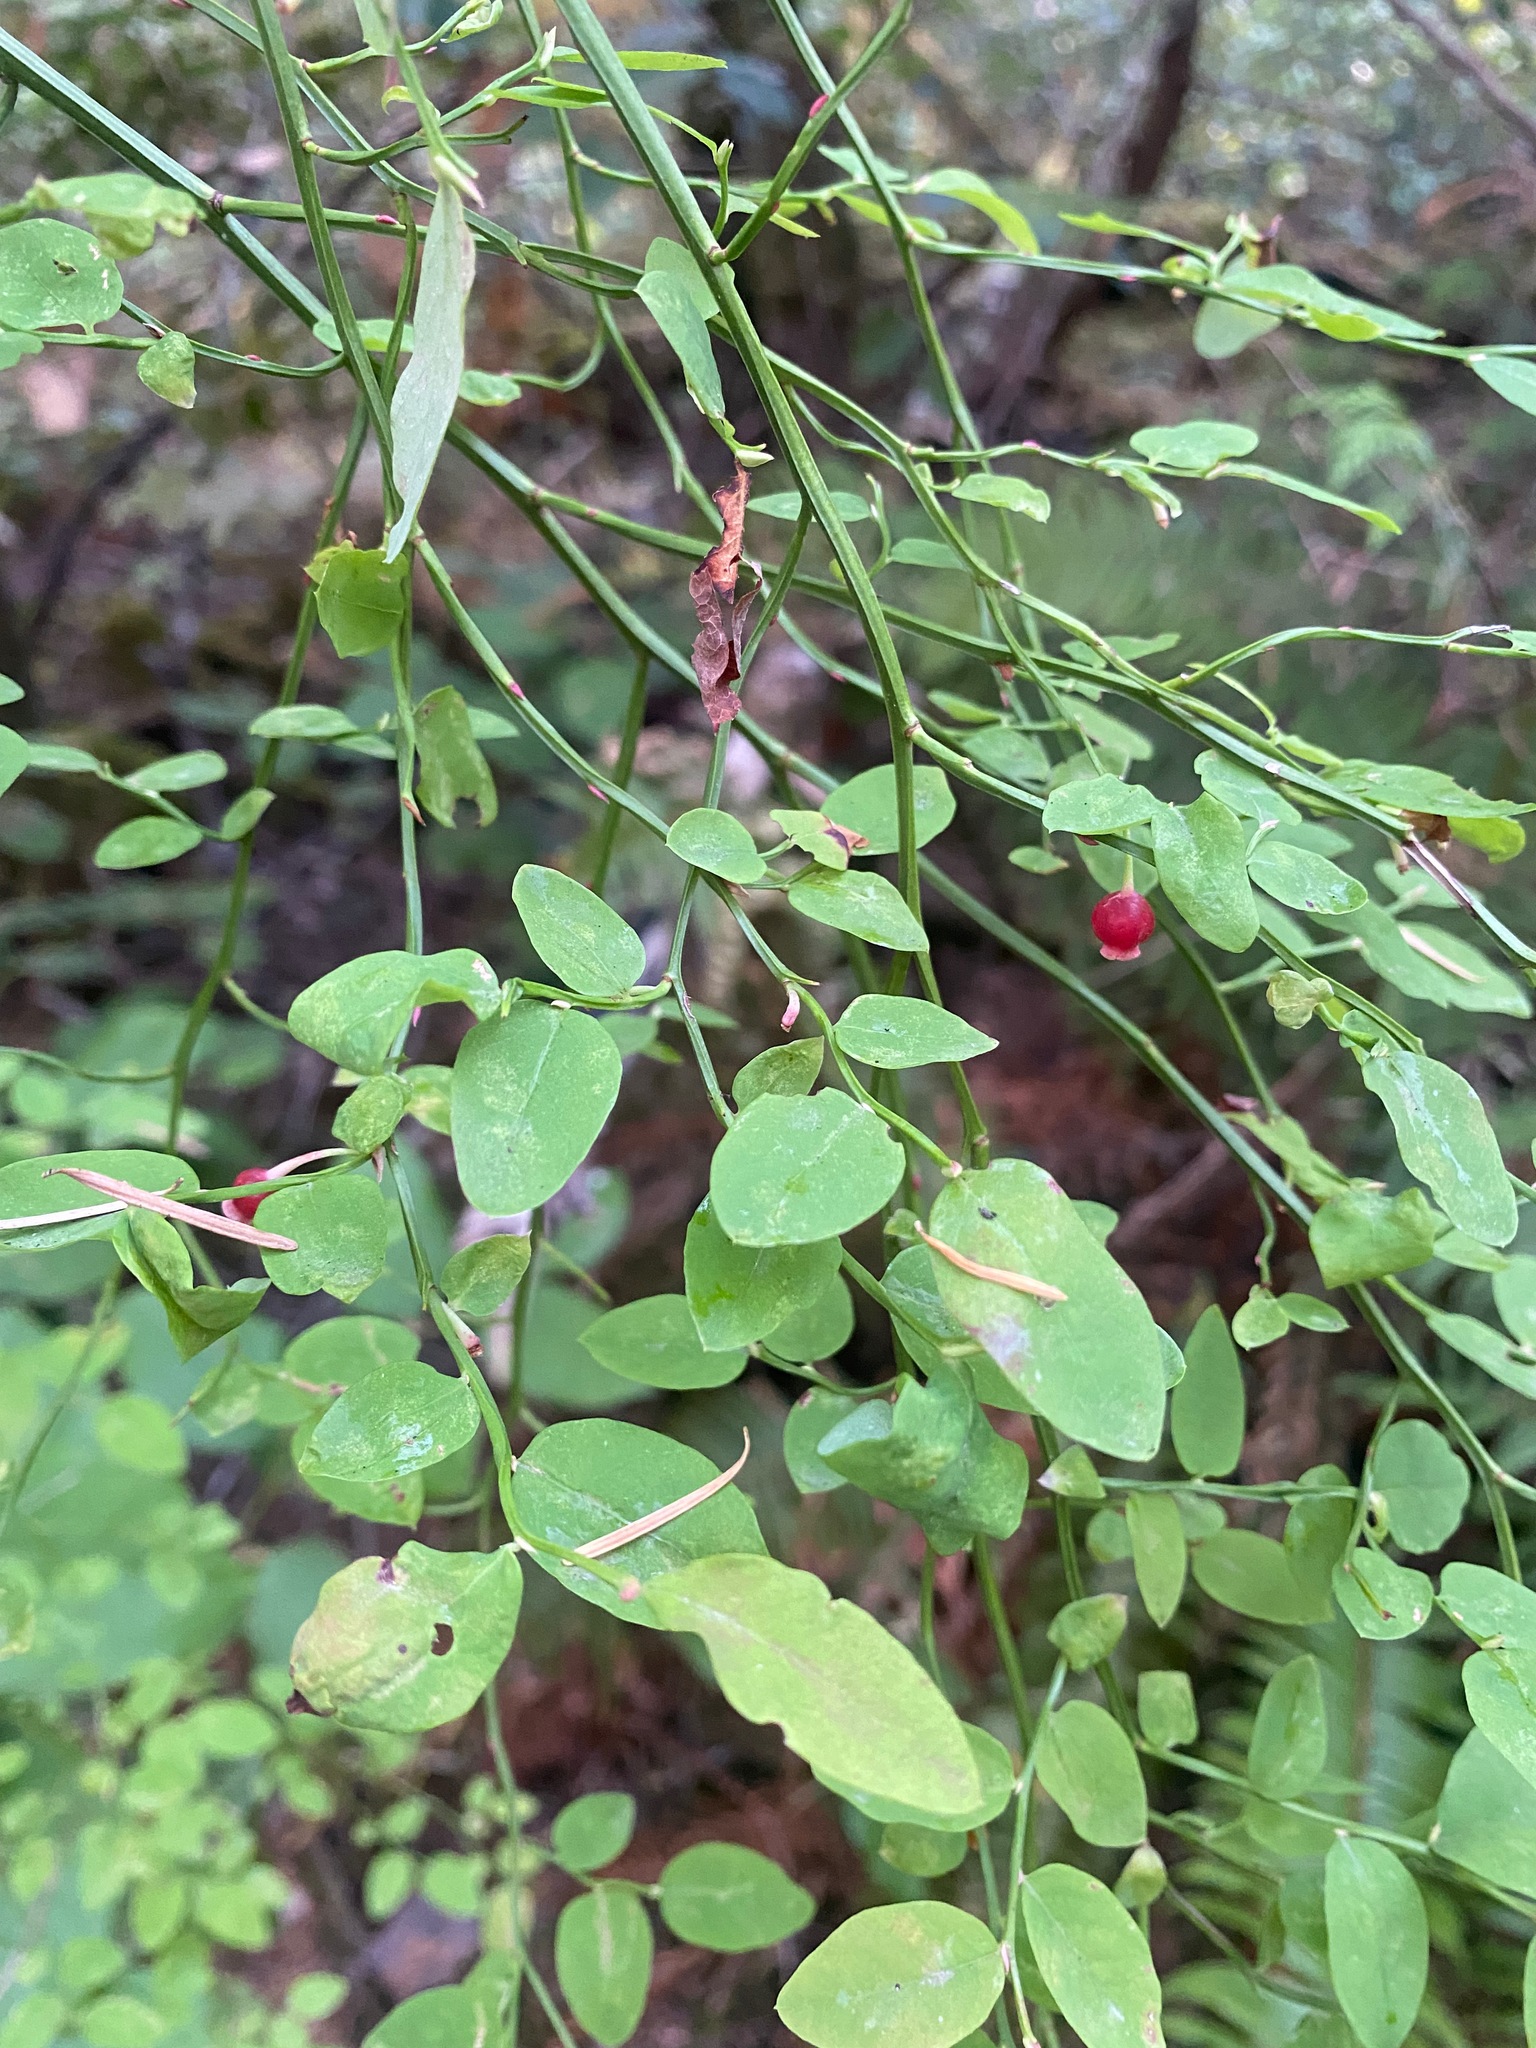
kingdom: Plantae
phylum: Tracheophyta
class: Magnoliopsida
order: Ericales
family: Ericaceae
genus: Vaccinium
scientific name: Vaccinium parvifolium
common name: Red-huckleberry
